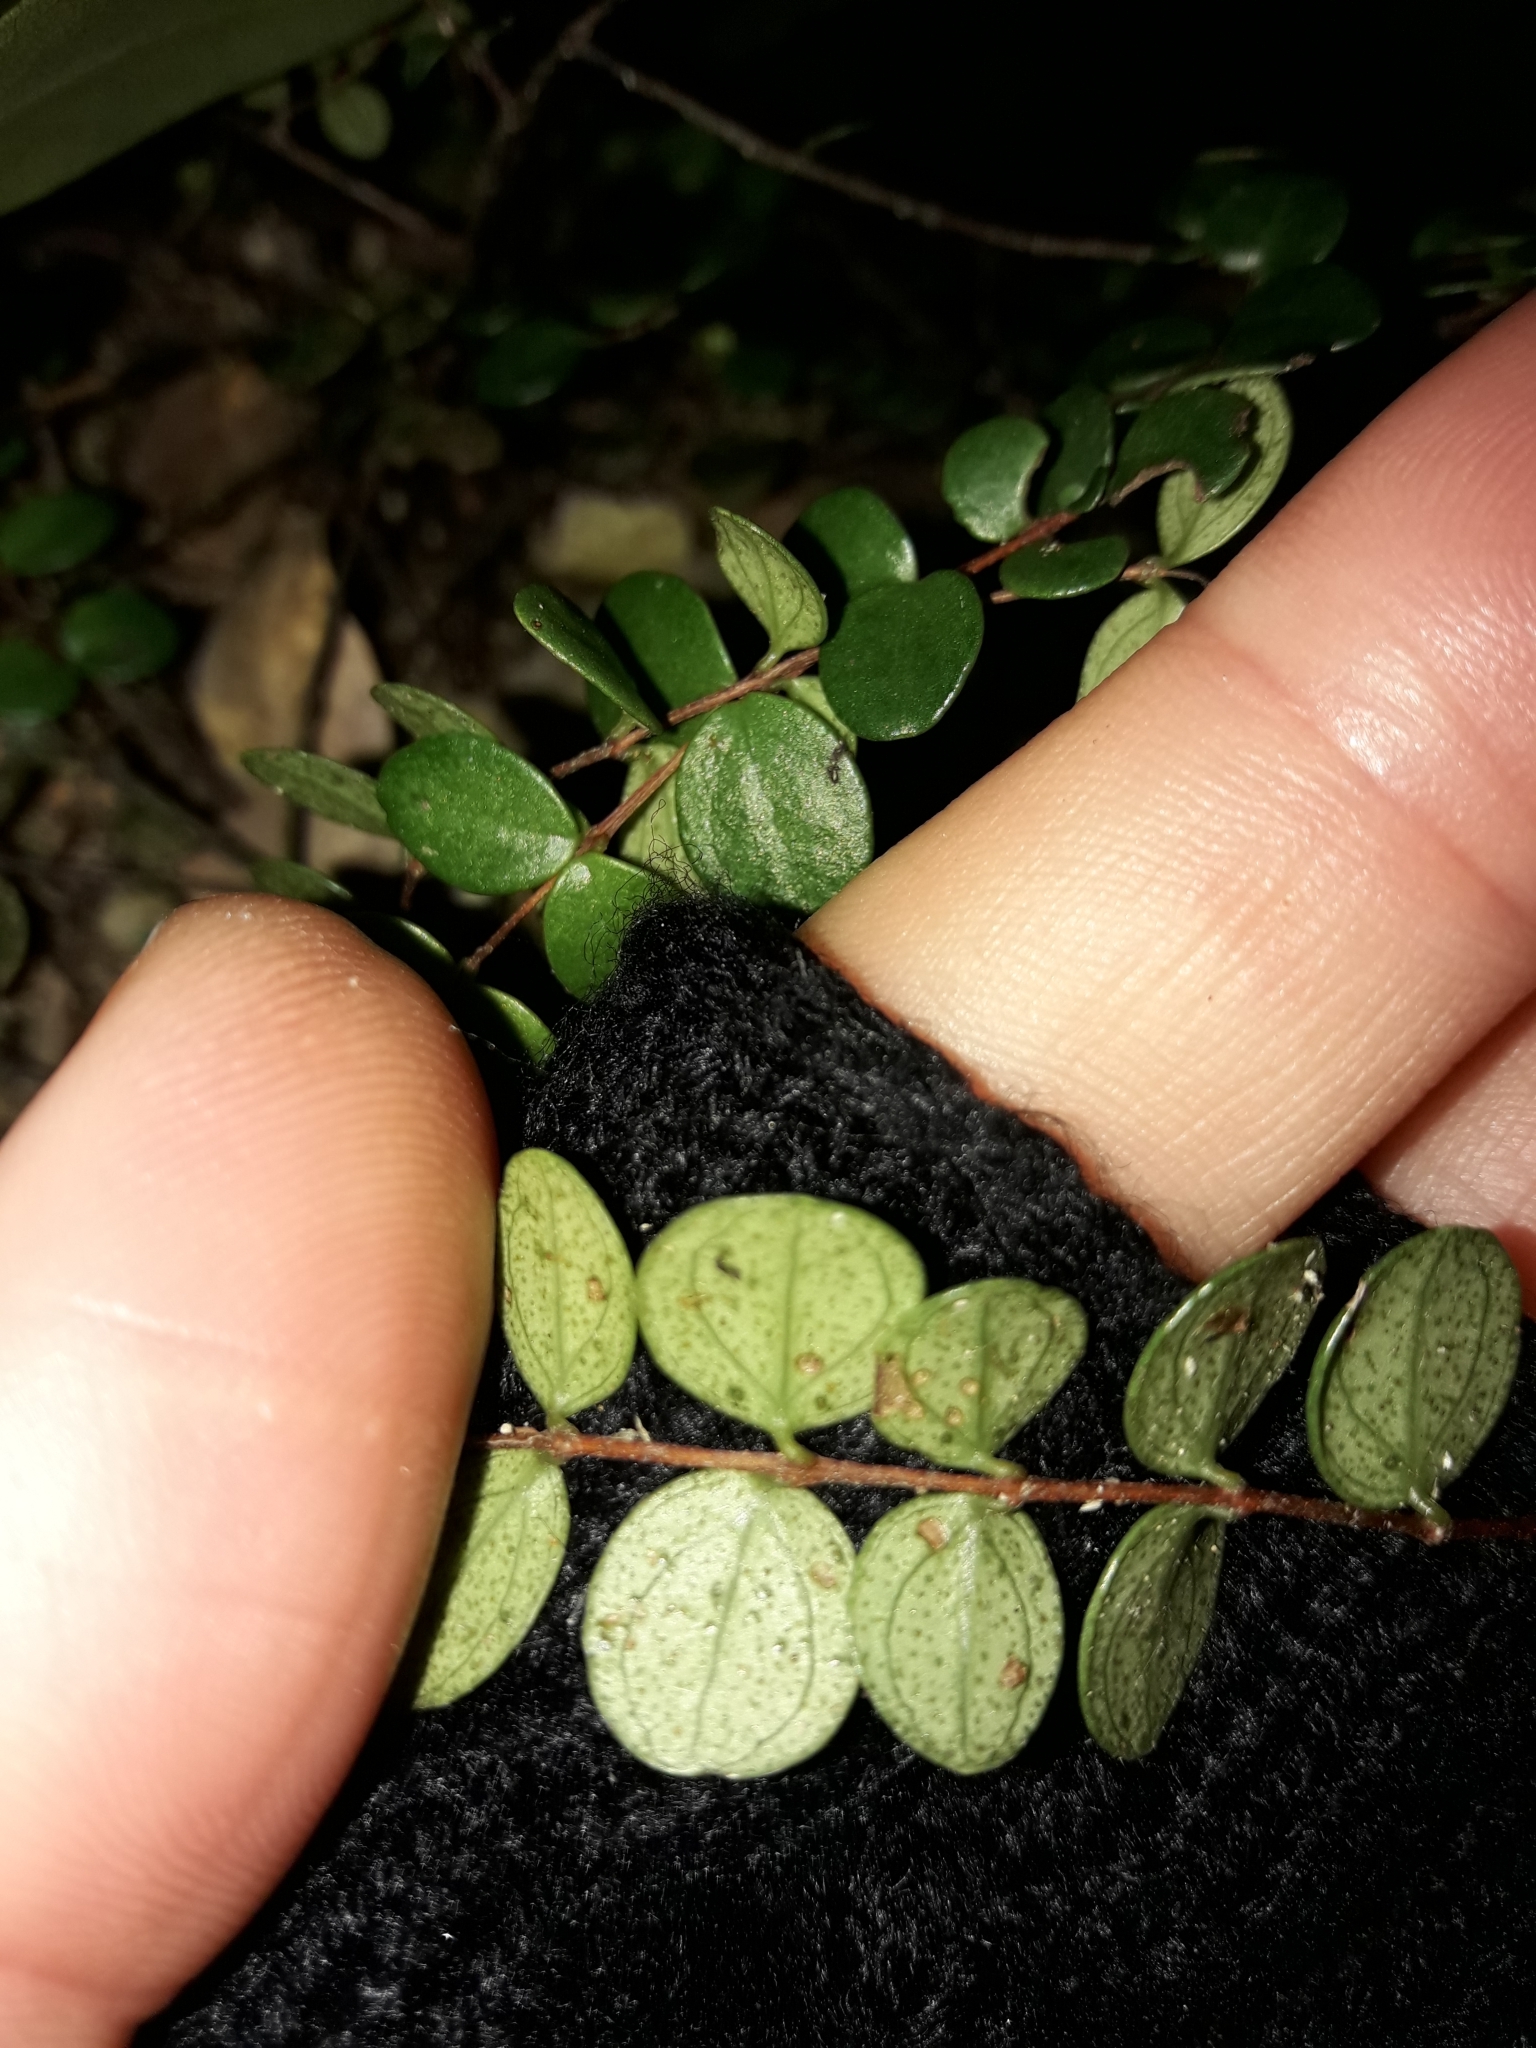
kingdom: Plantae
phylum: Tracheophyta
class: Magnoliopsida
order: Myrtales
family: Myrtaceae
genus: Metrosideros
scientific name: Metrosideros perforata
